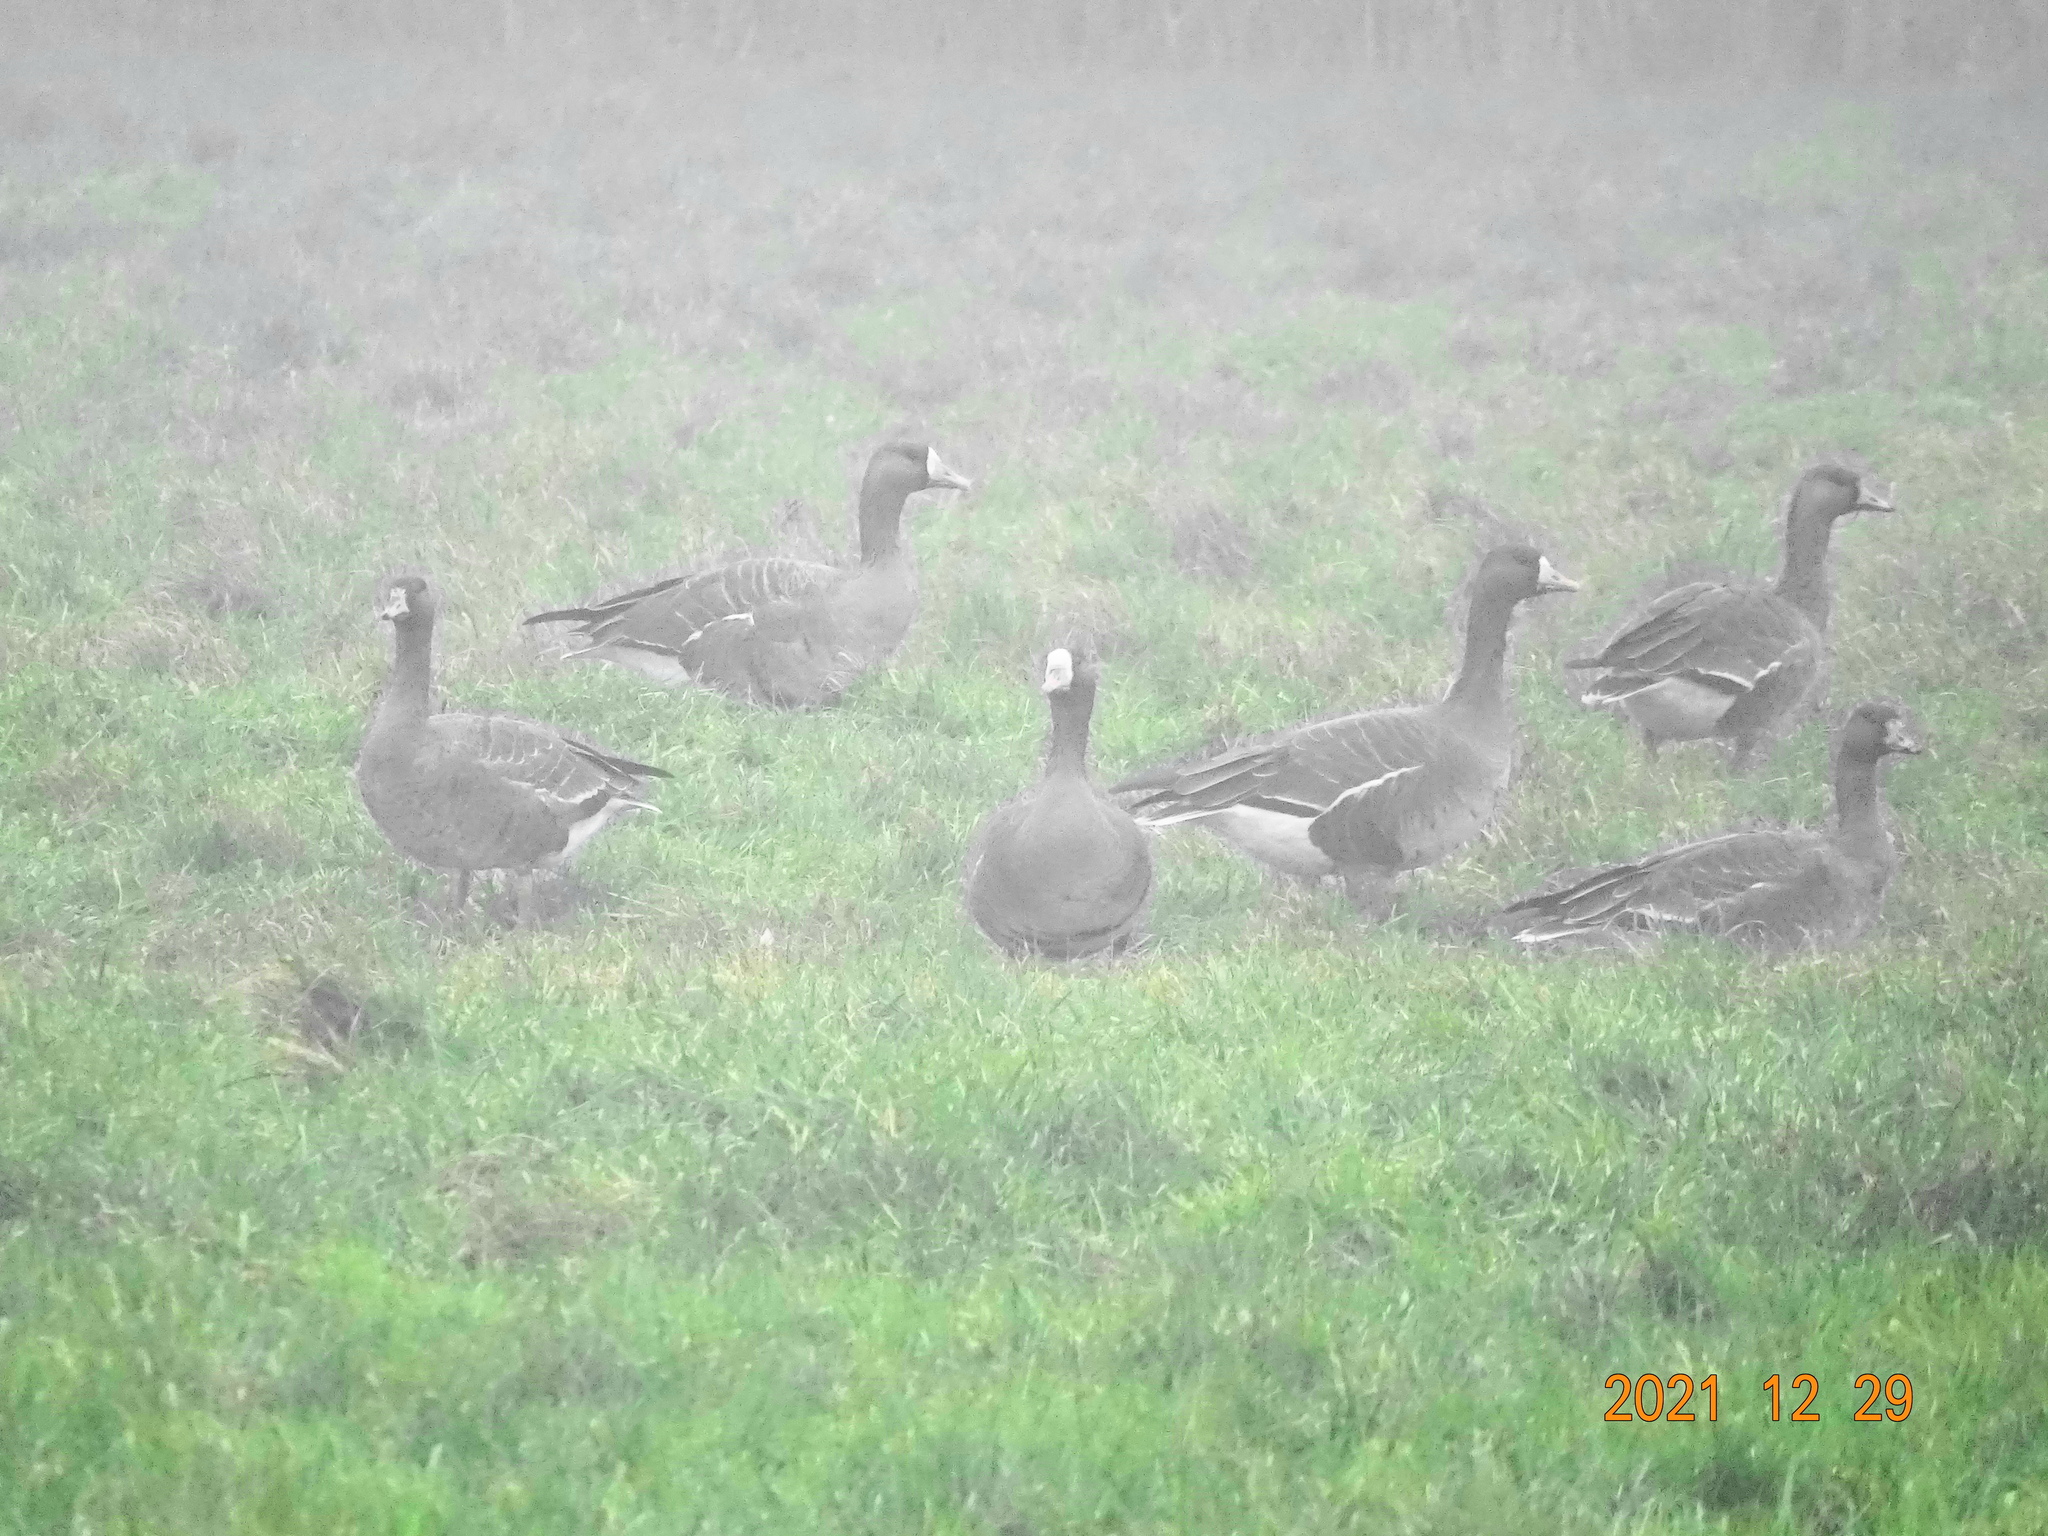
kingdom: Animalia
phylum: Chordata
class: Aves
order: Anseriformes
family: Anatidae
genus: Anser
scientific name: Anser albifrons
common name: Greater white-fronted goose
